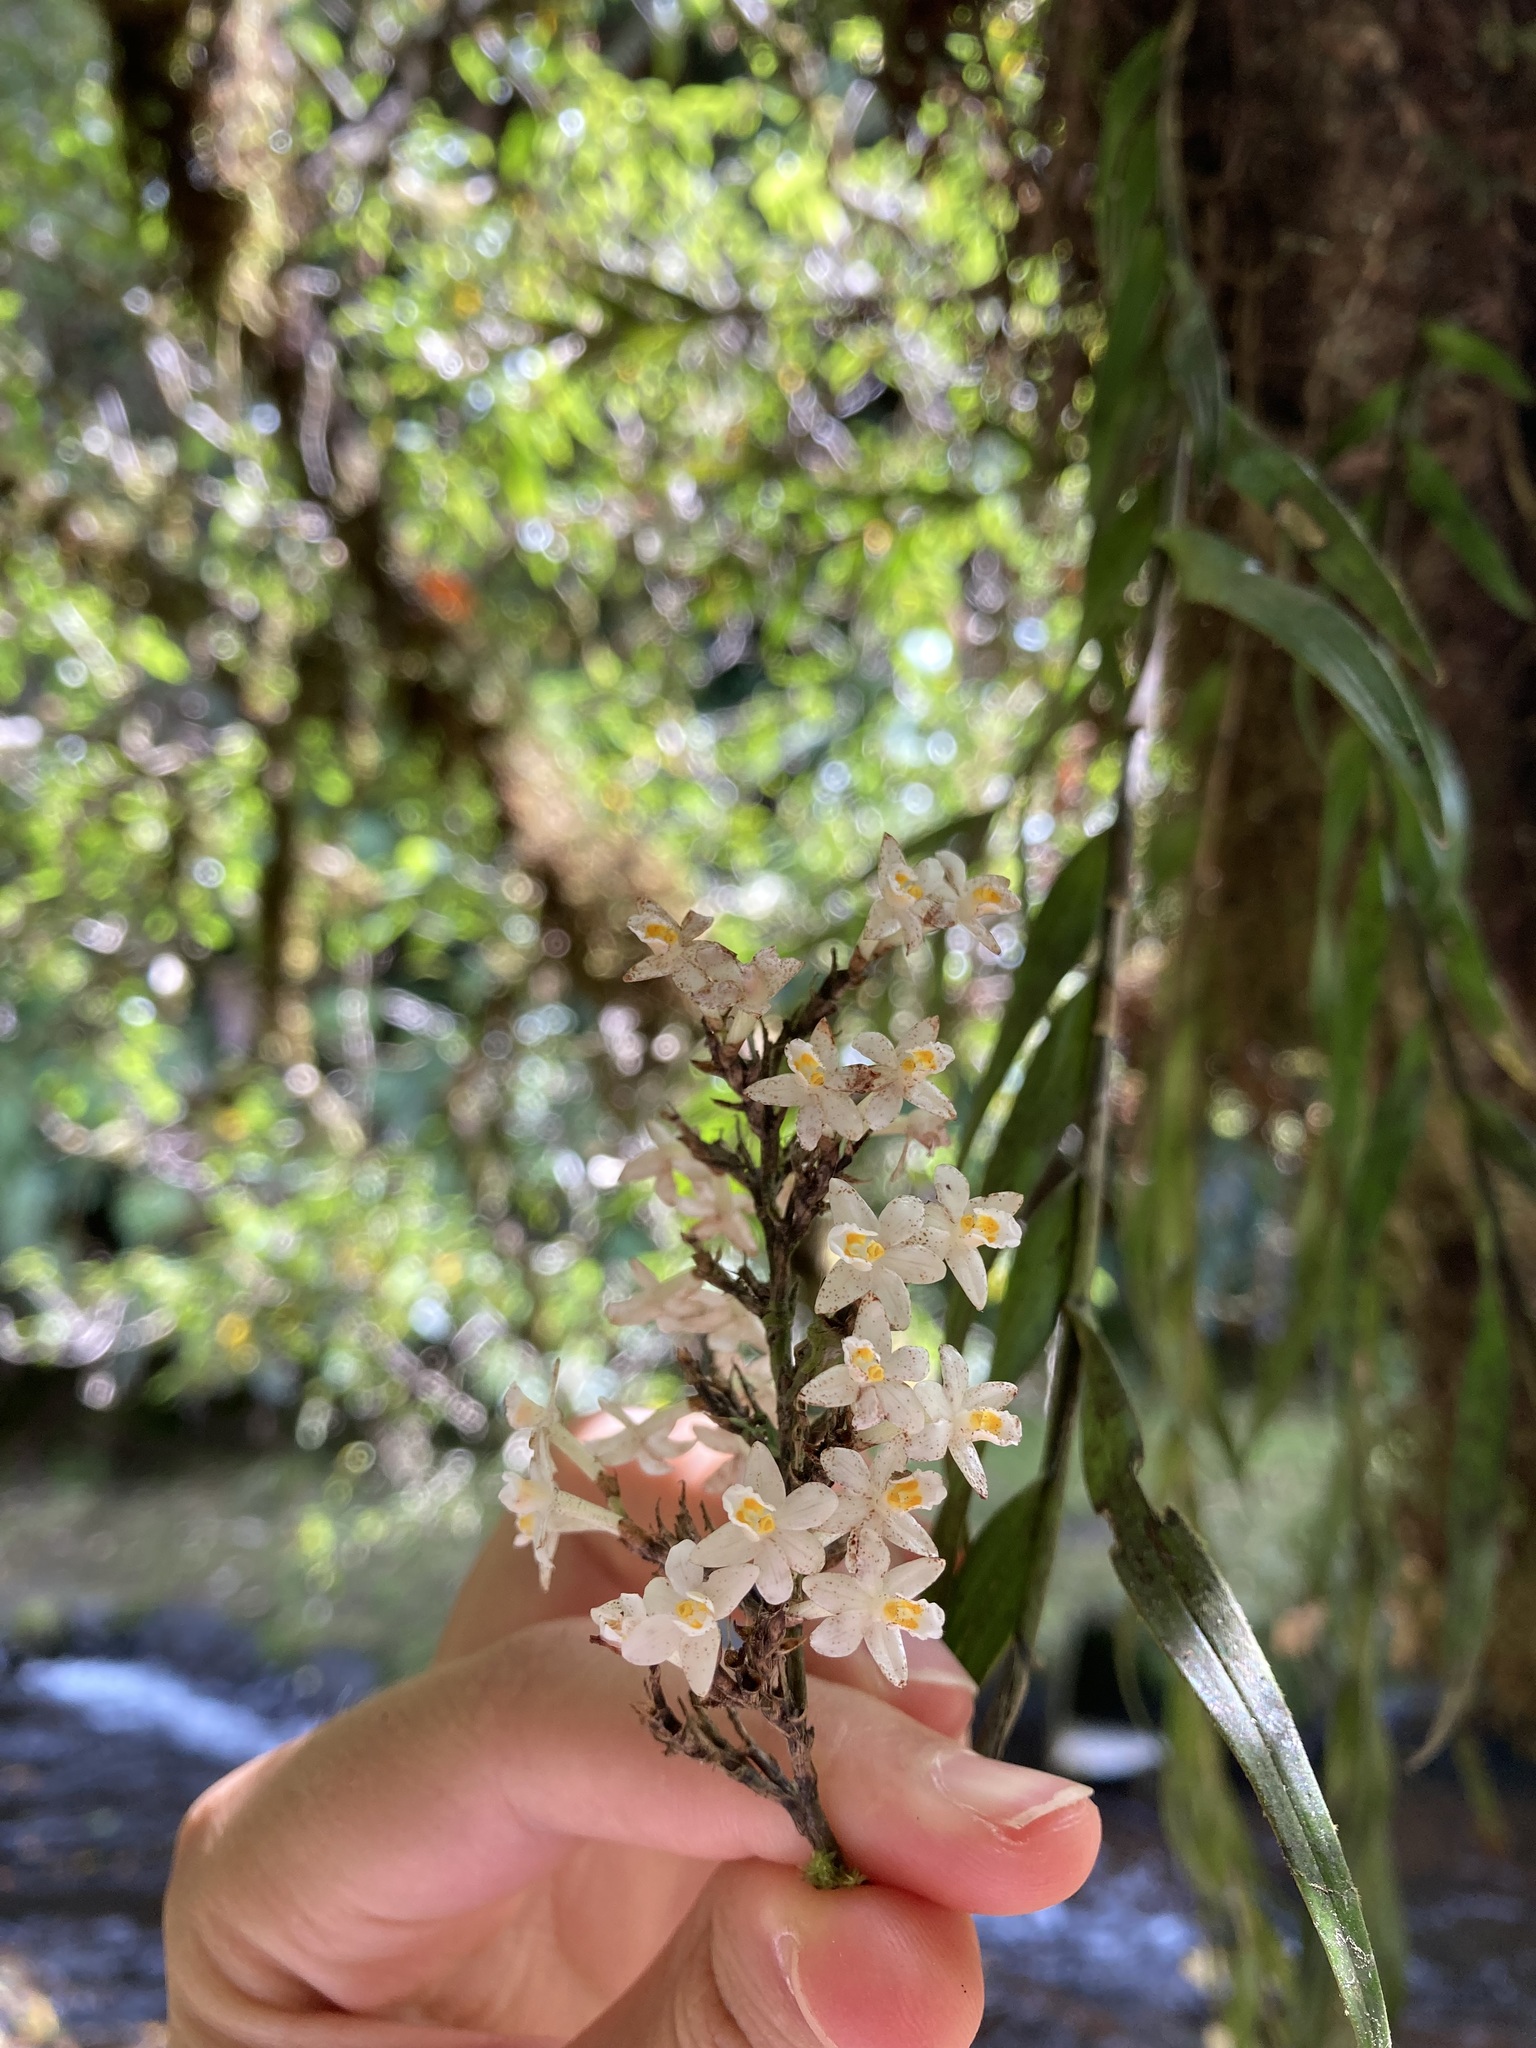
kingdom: Plantae
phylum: Tracheophyta
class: Liliopsida
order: Asparagales
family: Orchidaceae
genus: Earina
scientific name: Earina autumnalis
